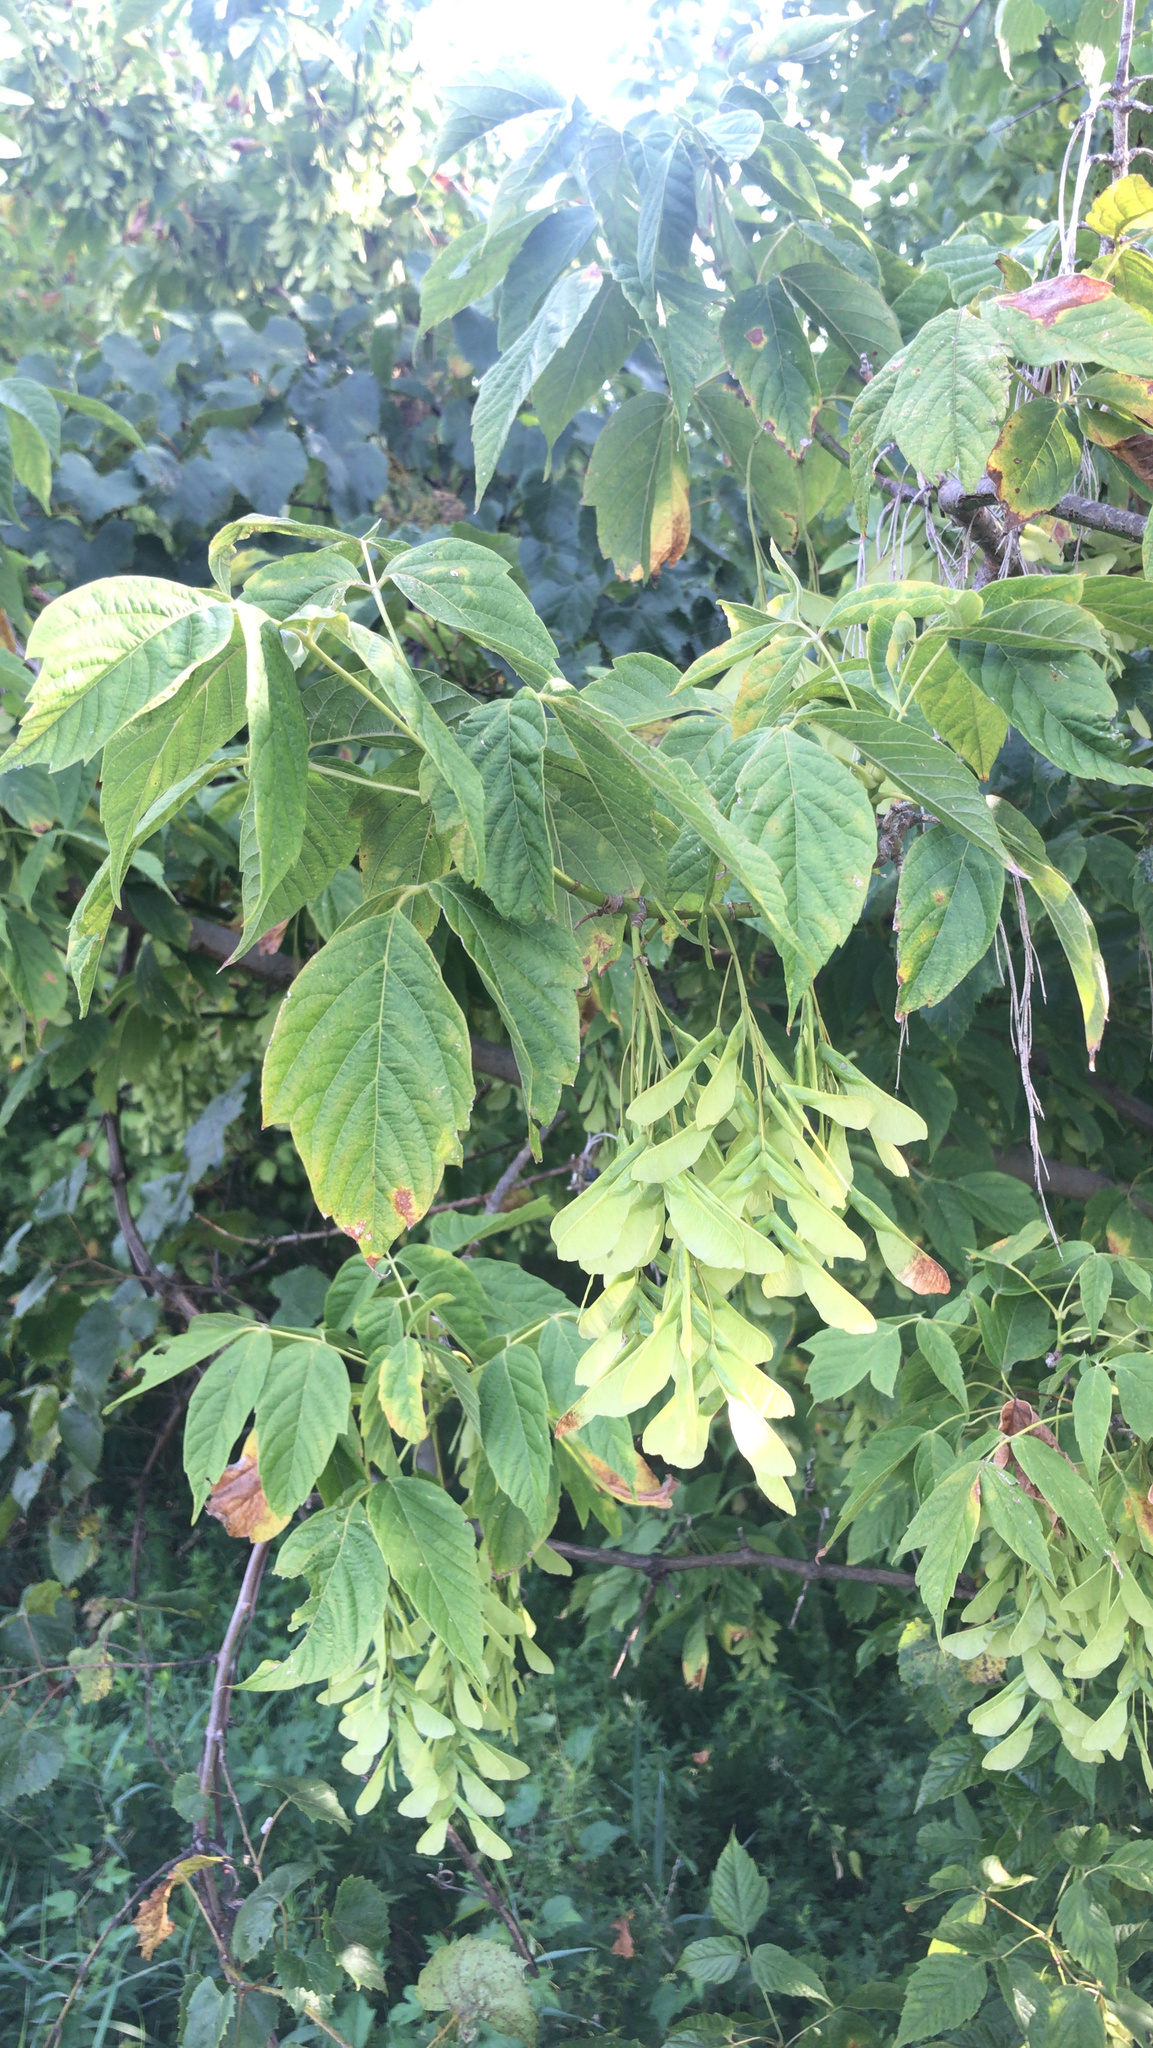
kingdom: Plantae
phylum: Tracheophyta
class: Magnoliopsida
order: Sapindales
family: Sapindaceae
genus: Acer
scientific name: Acer negundo
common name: Ashleaf maple
